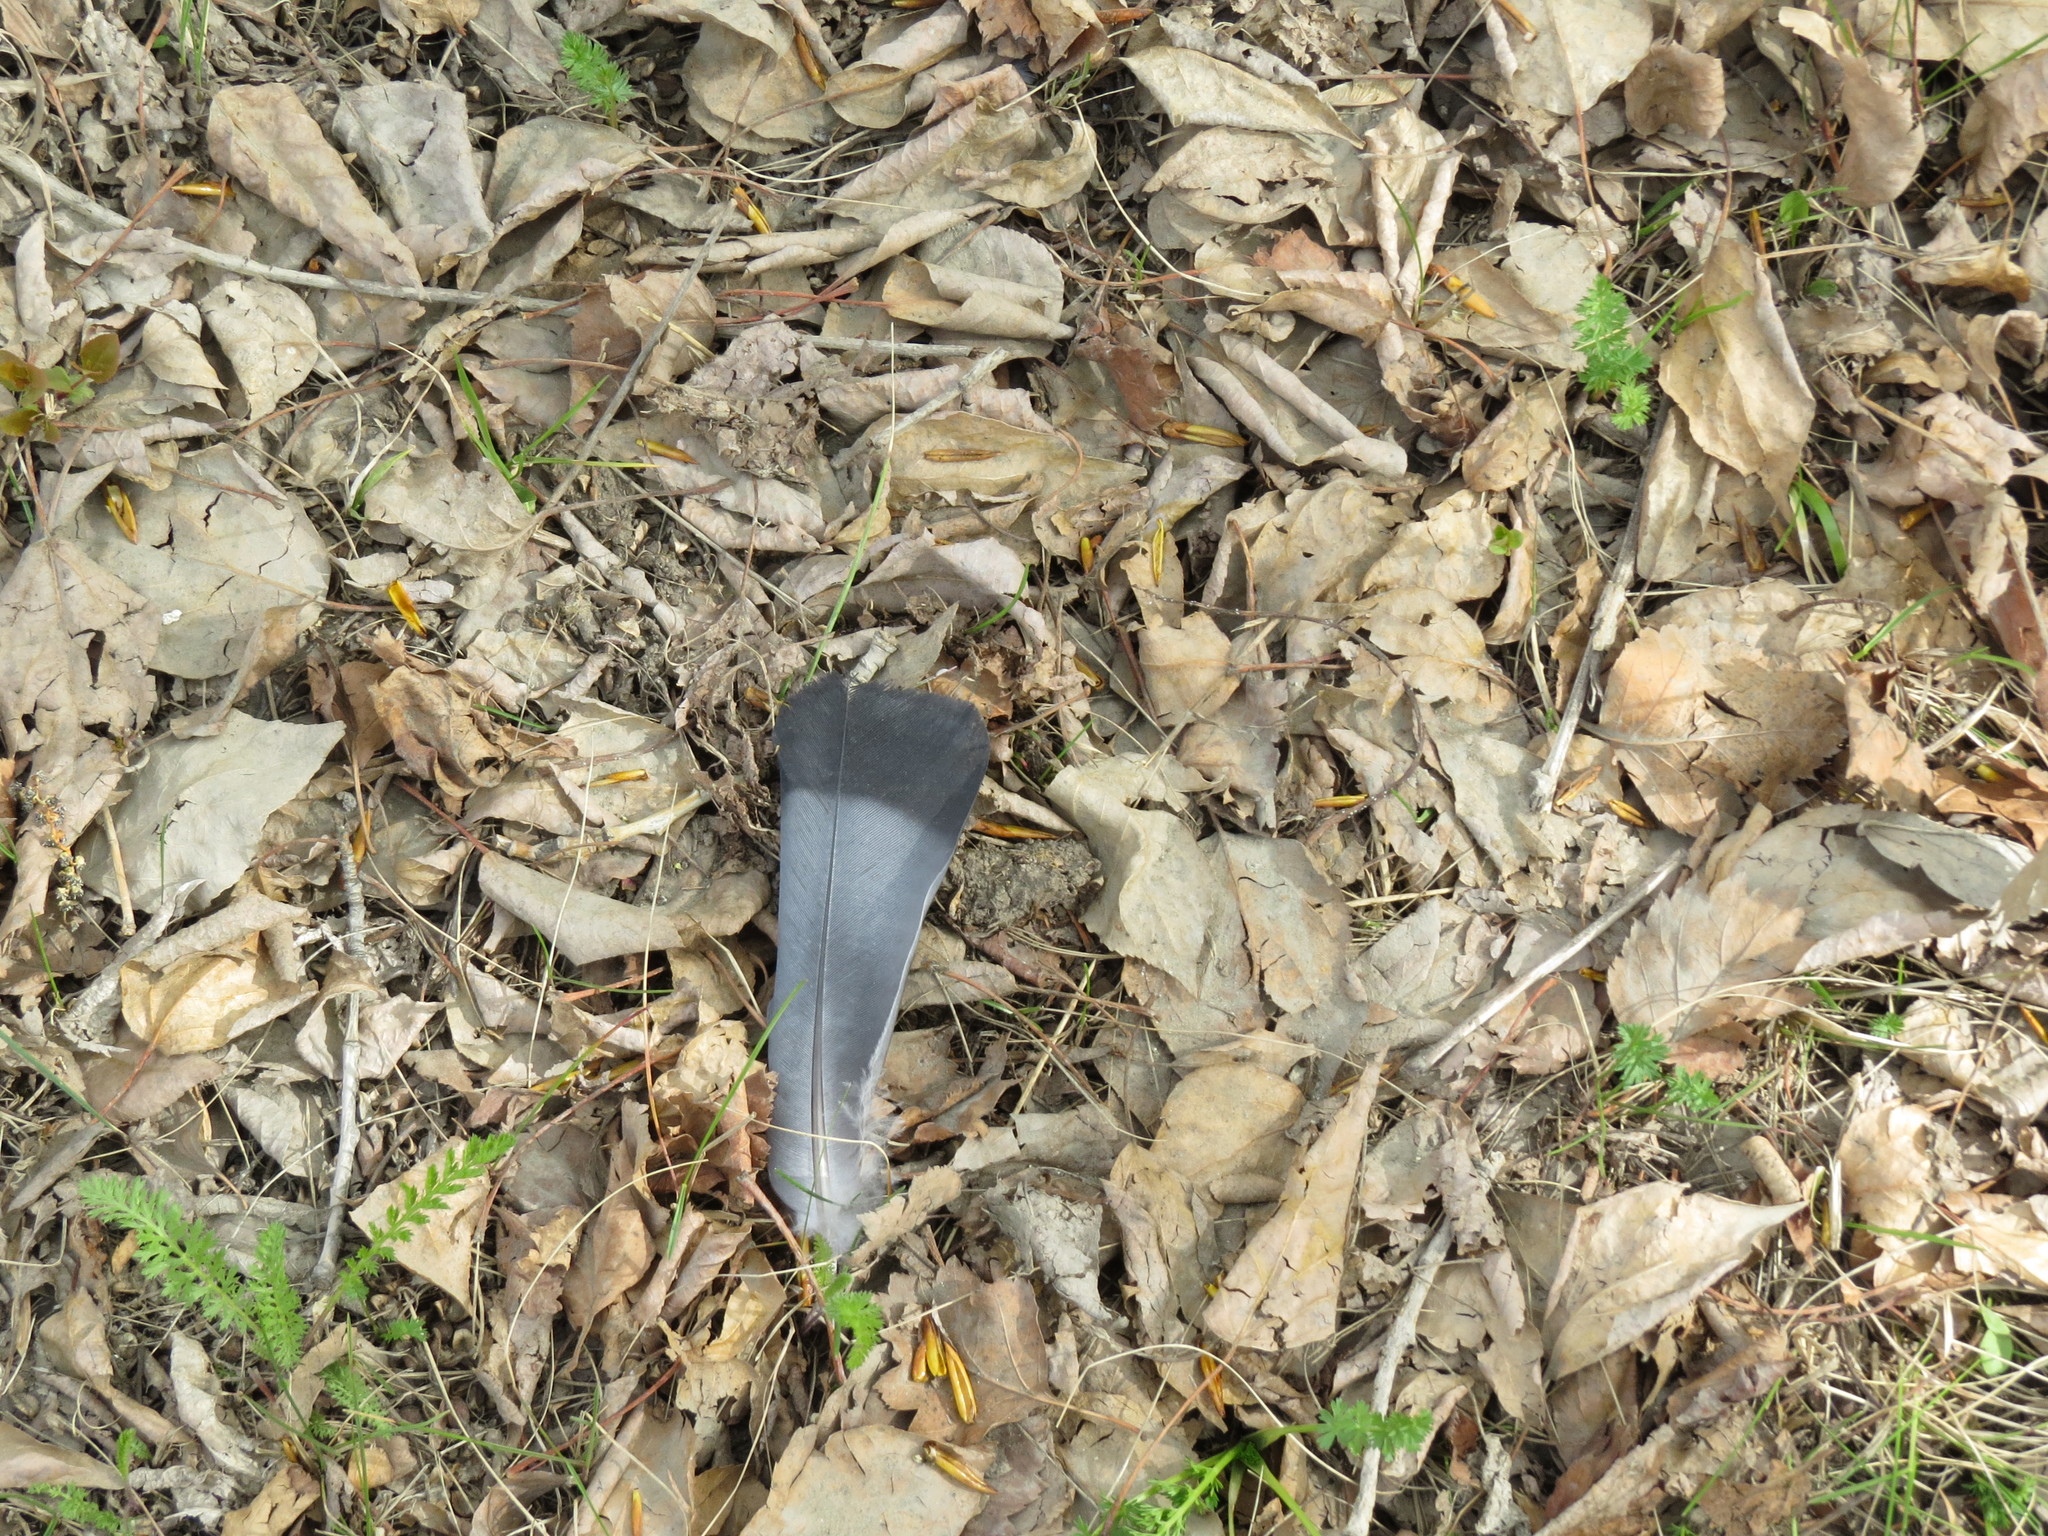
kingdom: Animalia
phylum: Chordata
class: Aves
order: Columbiformes
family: Columbidae
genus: Columba
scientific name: Columba livia
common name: Rock pigeon
